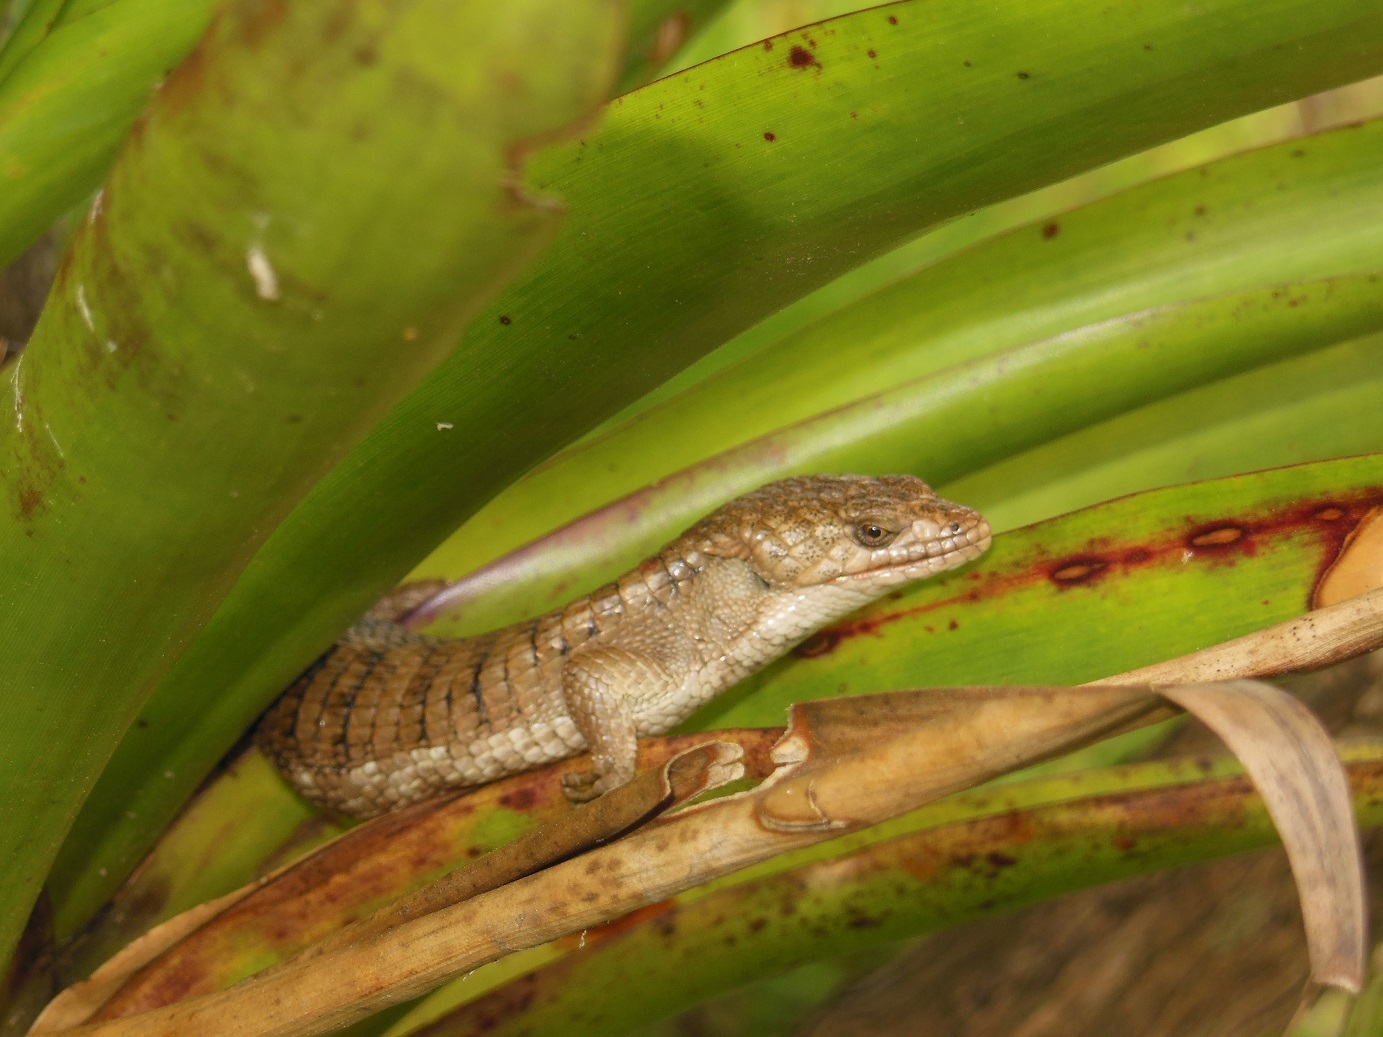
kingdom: Animalia
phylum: Chordata
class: Squamata
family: Anguidae
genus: Abronia
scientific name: Abronia lythrochila
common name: Red-lipped arboreal alligator lizard
